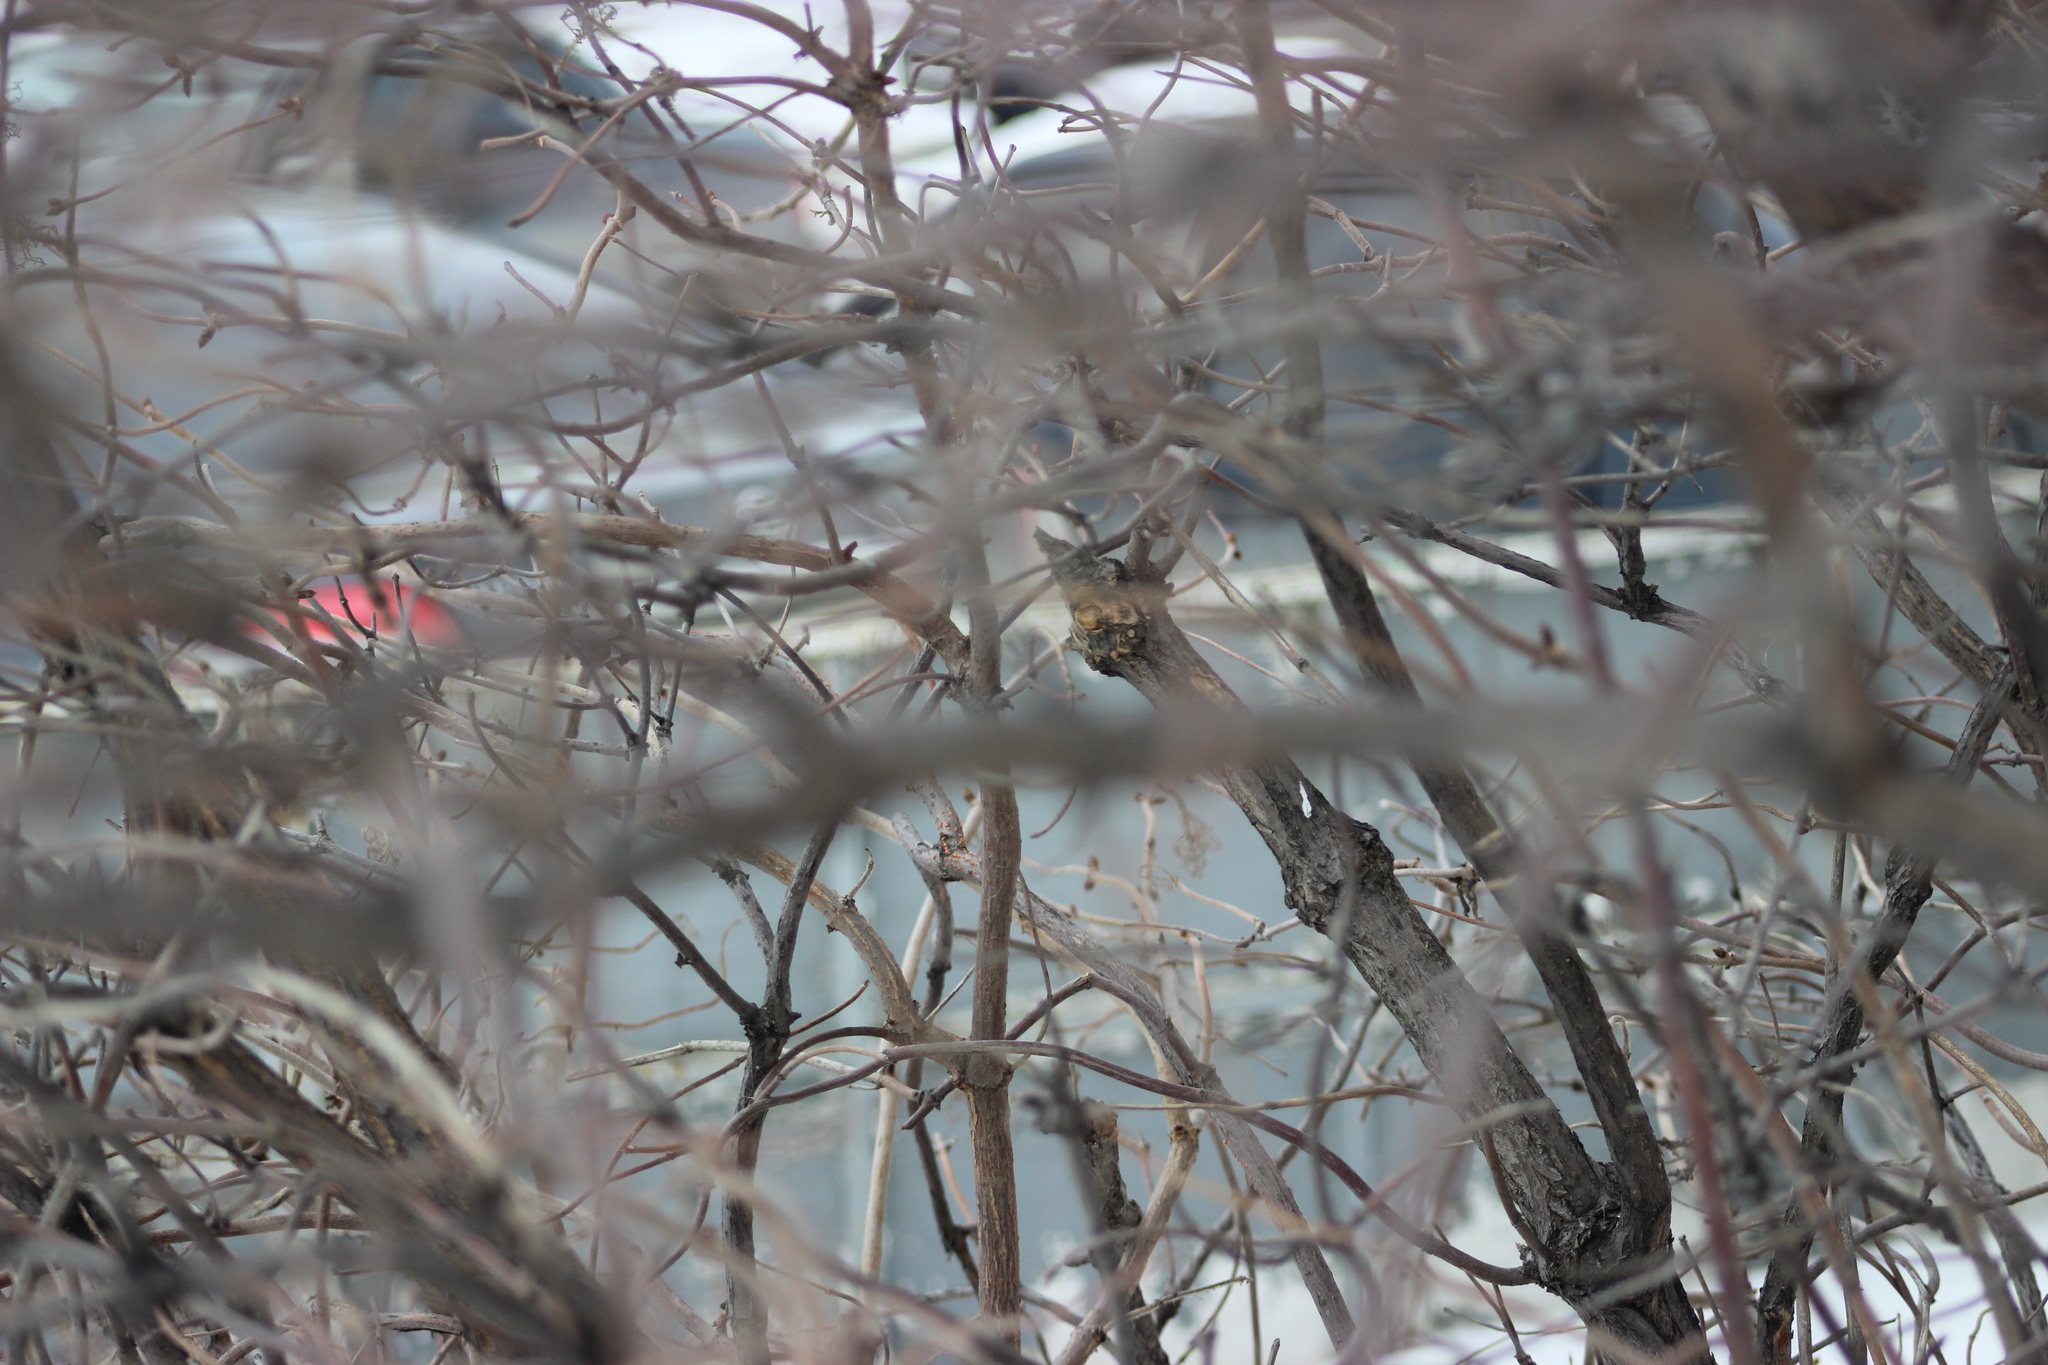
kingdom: Plantae
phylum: Tracheophyta
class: Magnoliopsida
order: Dipsacales
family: Viburnaceae
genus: Sambucus
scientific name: Sambucus sibirica
